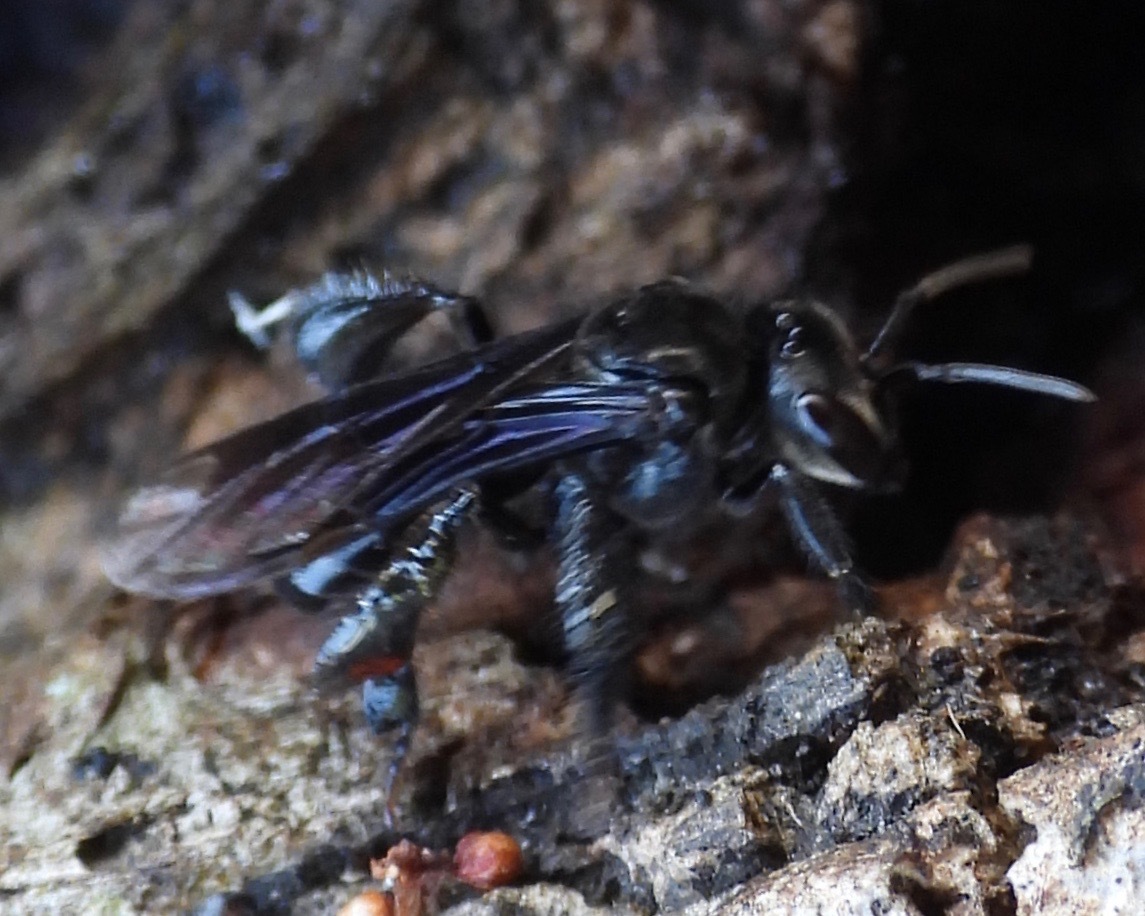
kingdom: Animalia
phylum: Arthropoda
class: Insecta
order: Hymenoptera
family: Apidae
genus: Trigona
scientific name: Trigona nigerrima
